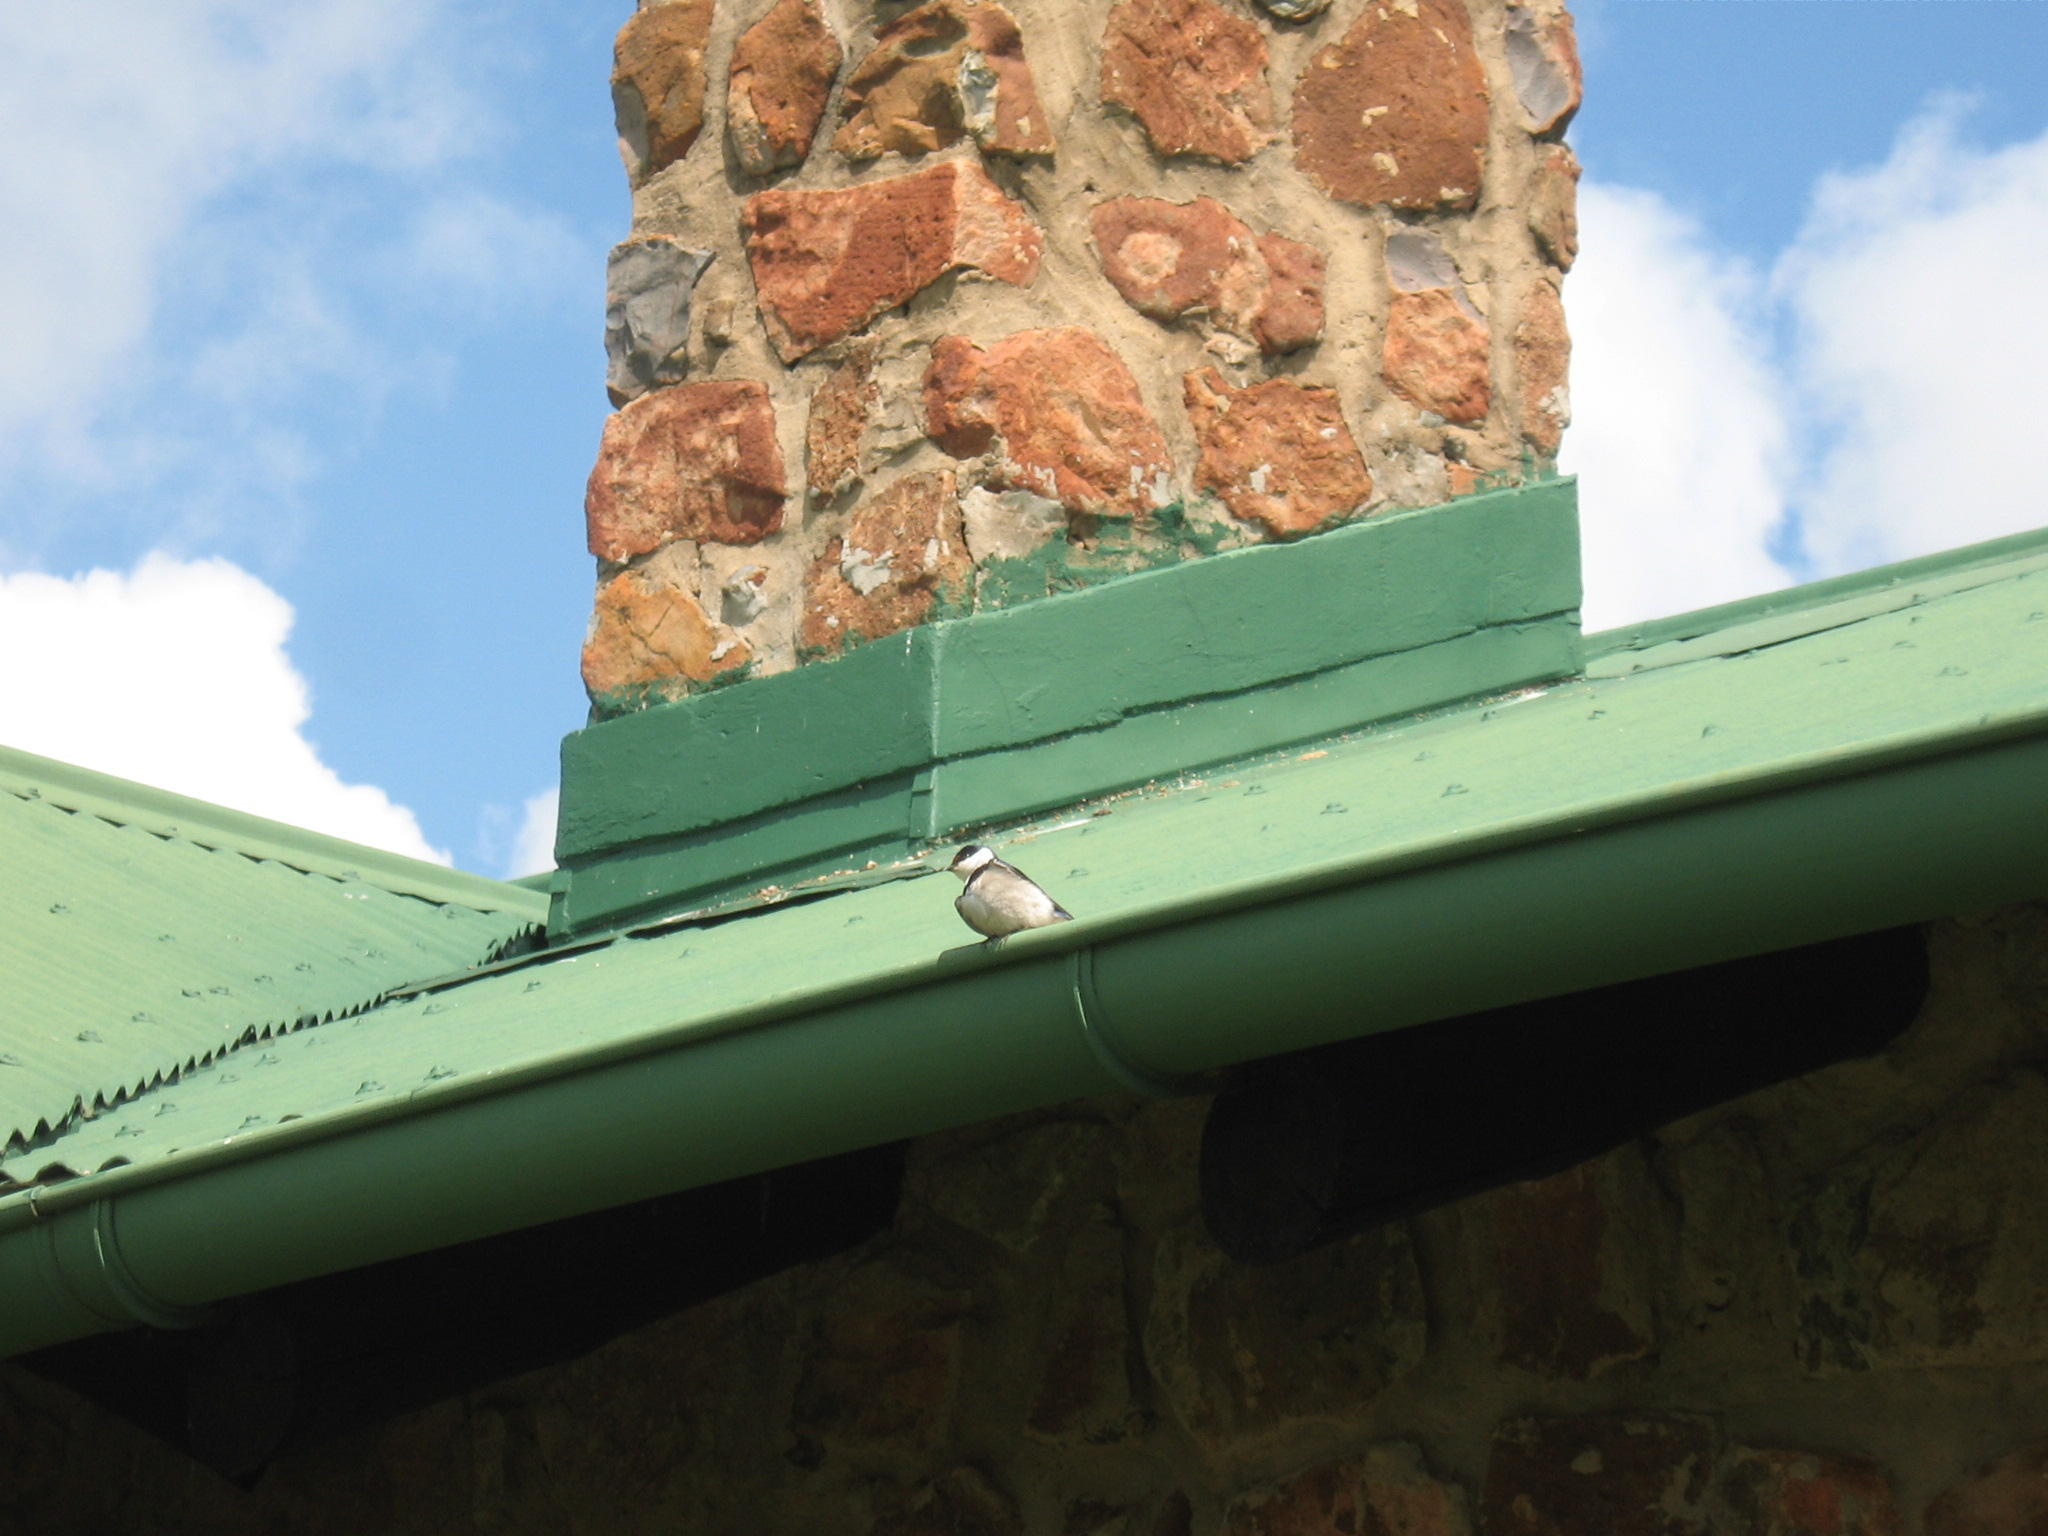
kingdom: Animalia
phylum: Chordata
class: Aves
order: Passeriformes
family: Hirundinidae
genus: Hirundo
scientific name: Hirundo albigularis
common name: White-throated swallow
